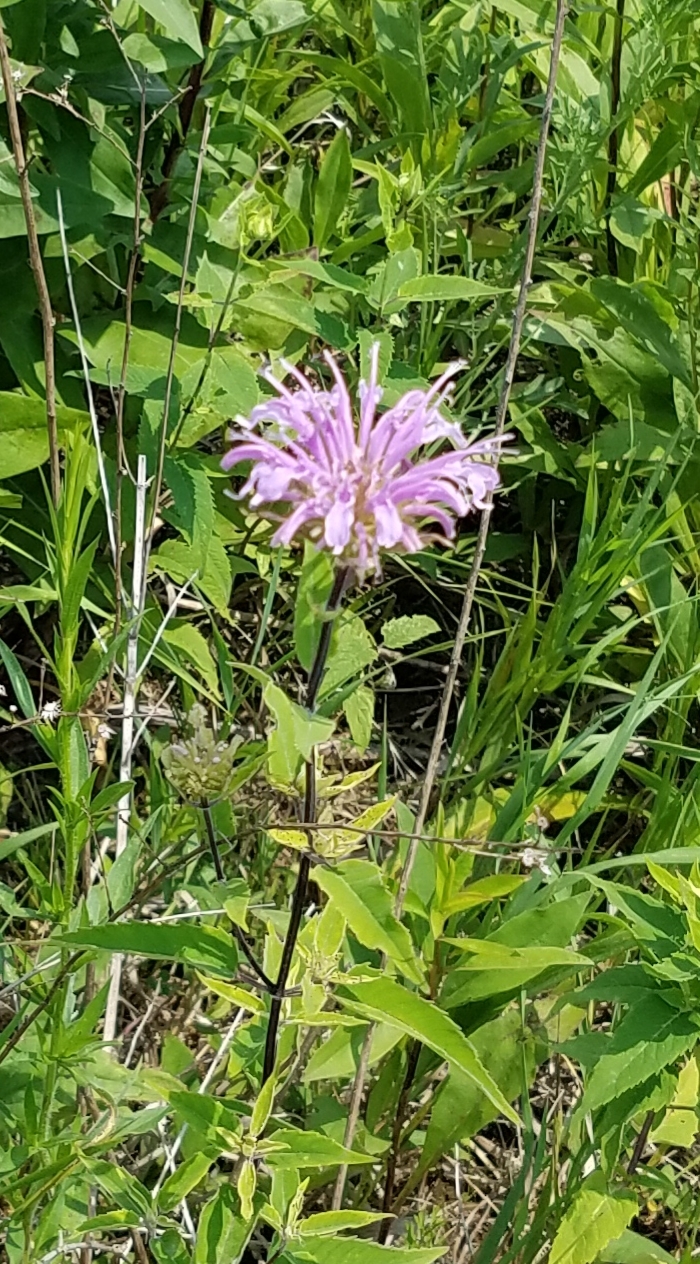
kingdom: Plantae
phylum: Tracheophyta
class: Magnoliopsida
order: Lamiales
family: Lamiaceae
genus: Monarda
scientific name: Monarda fistulosa
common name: Purple beebalm
